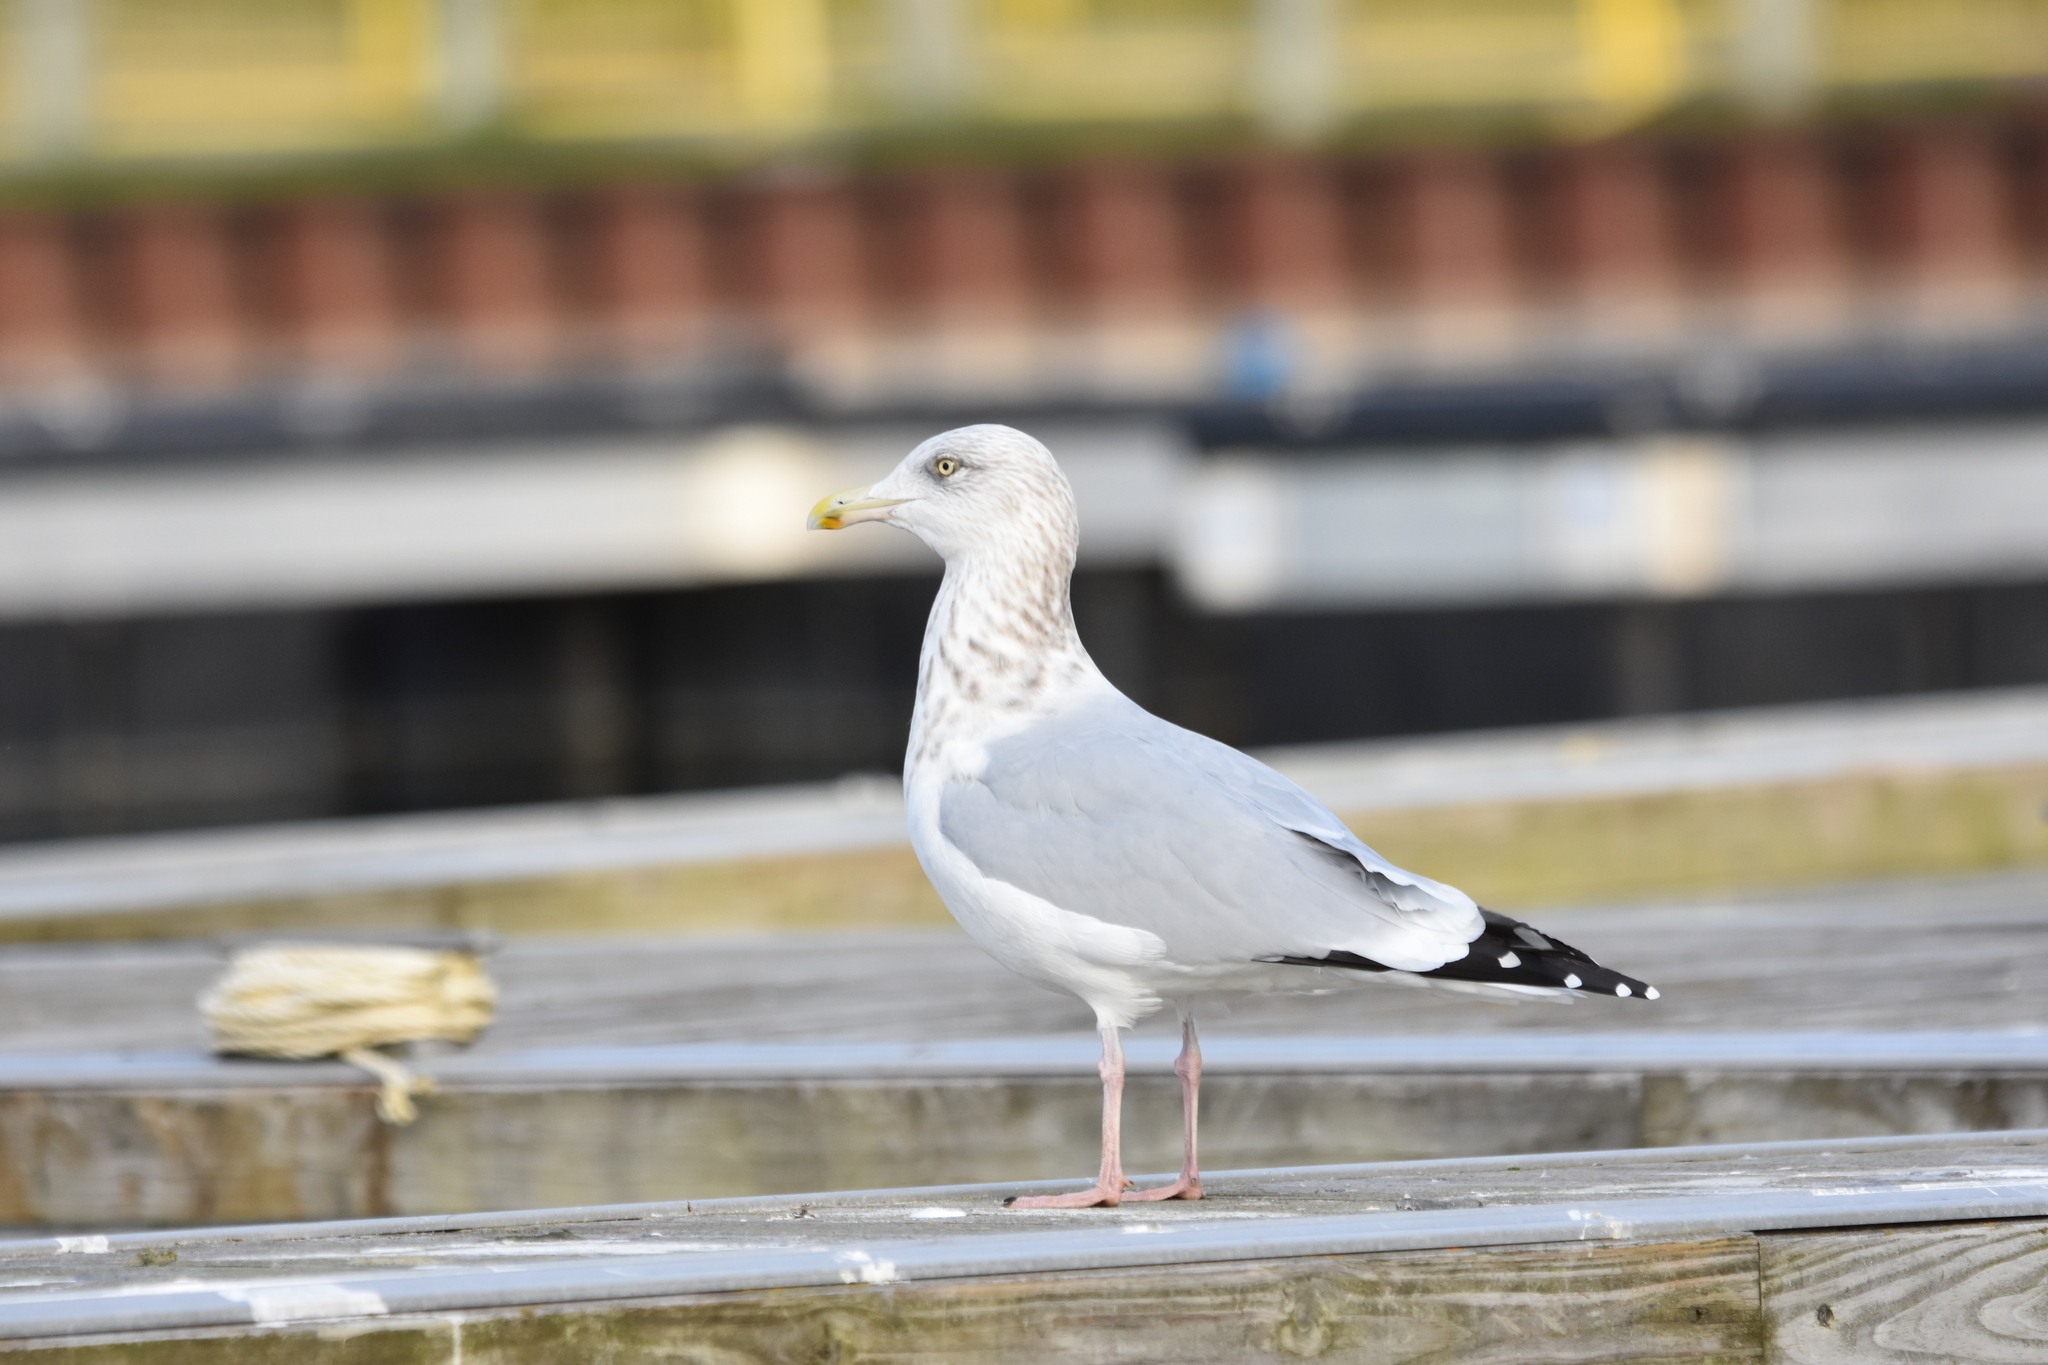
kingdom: Animalia
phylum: Chordata
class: Aves
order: Charadriiformes
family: Laridae
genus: Larus
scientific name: Larus argentatus
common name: Herring gull
